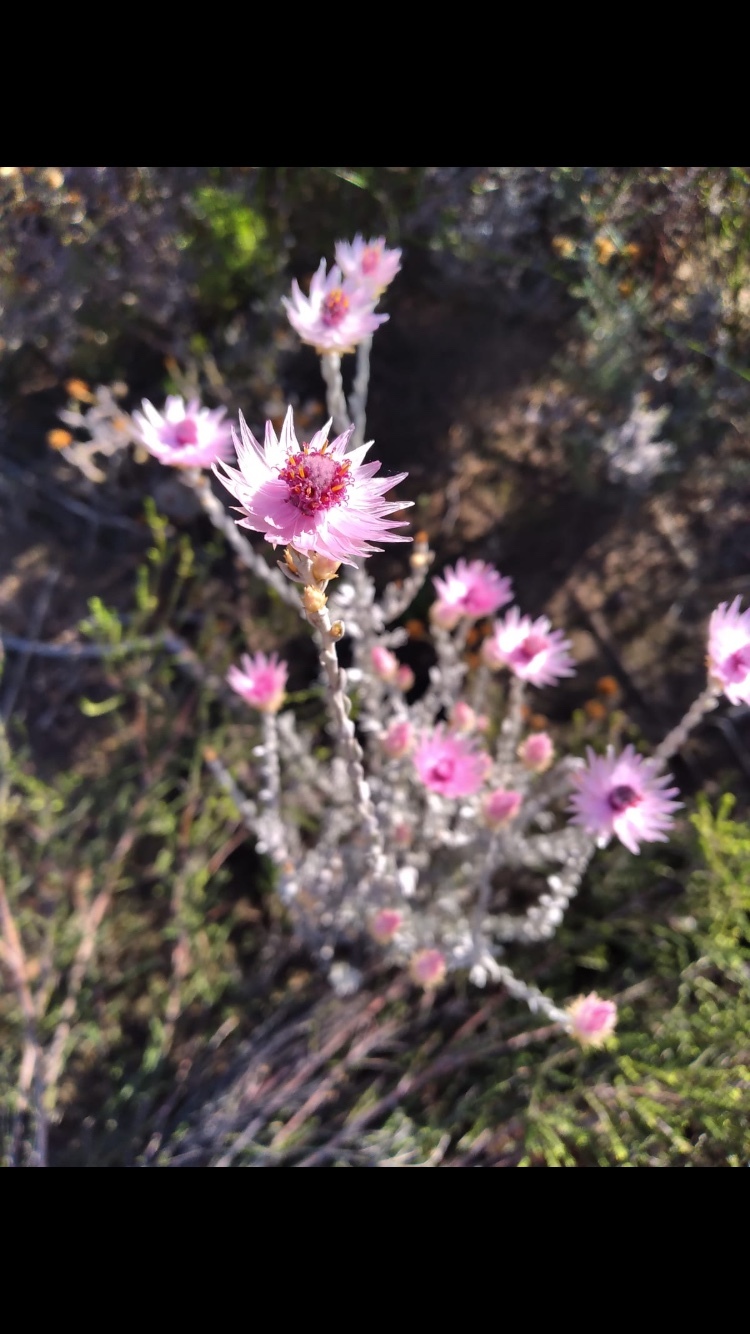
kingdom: Plantae
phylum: Tracheophyta
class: Magnoliopsida
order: Asterales
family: Asteraceae
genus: Syncarpha
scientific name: Syncarpha canescens
